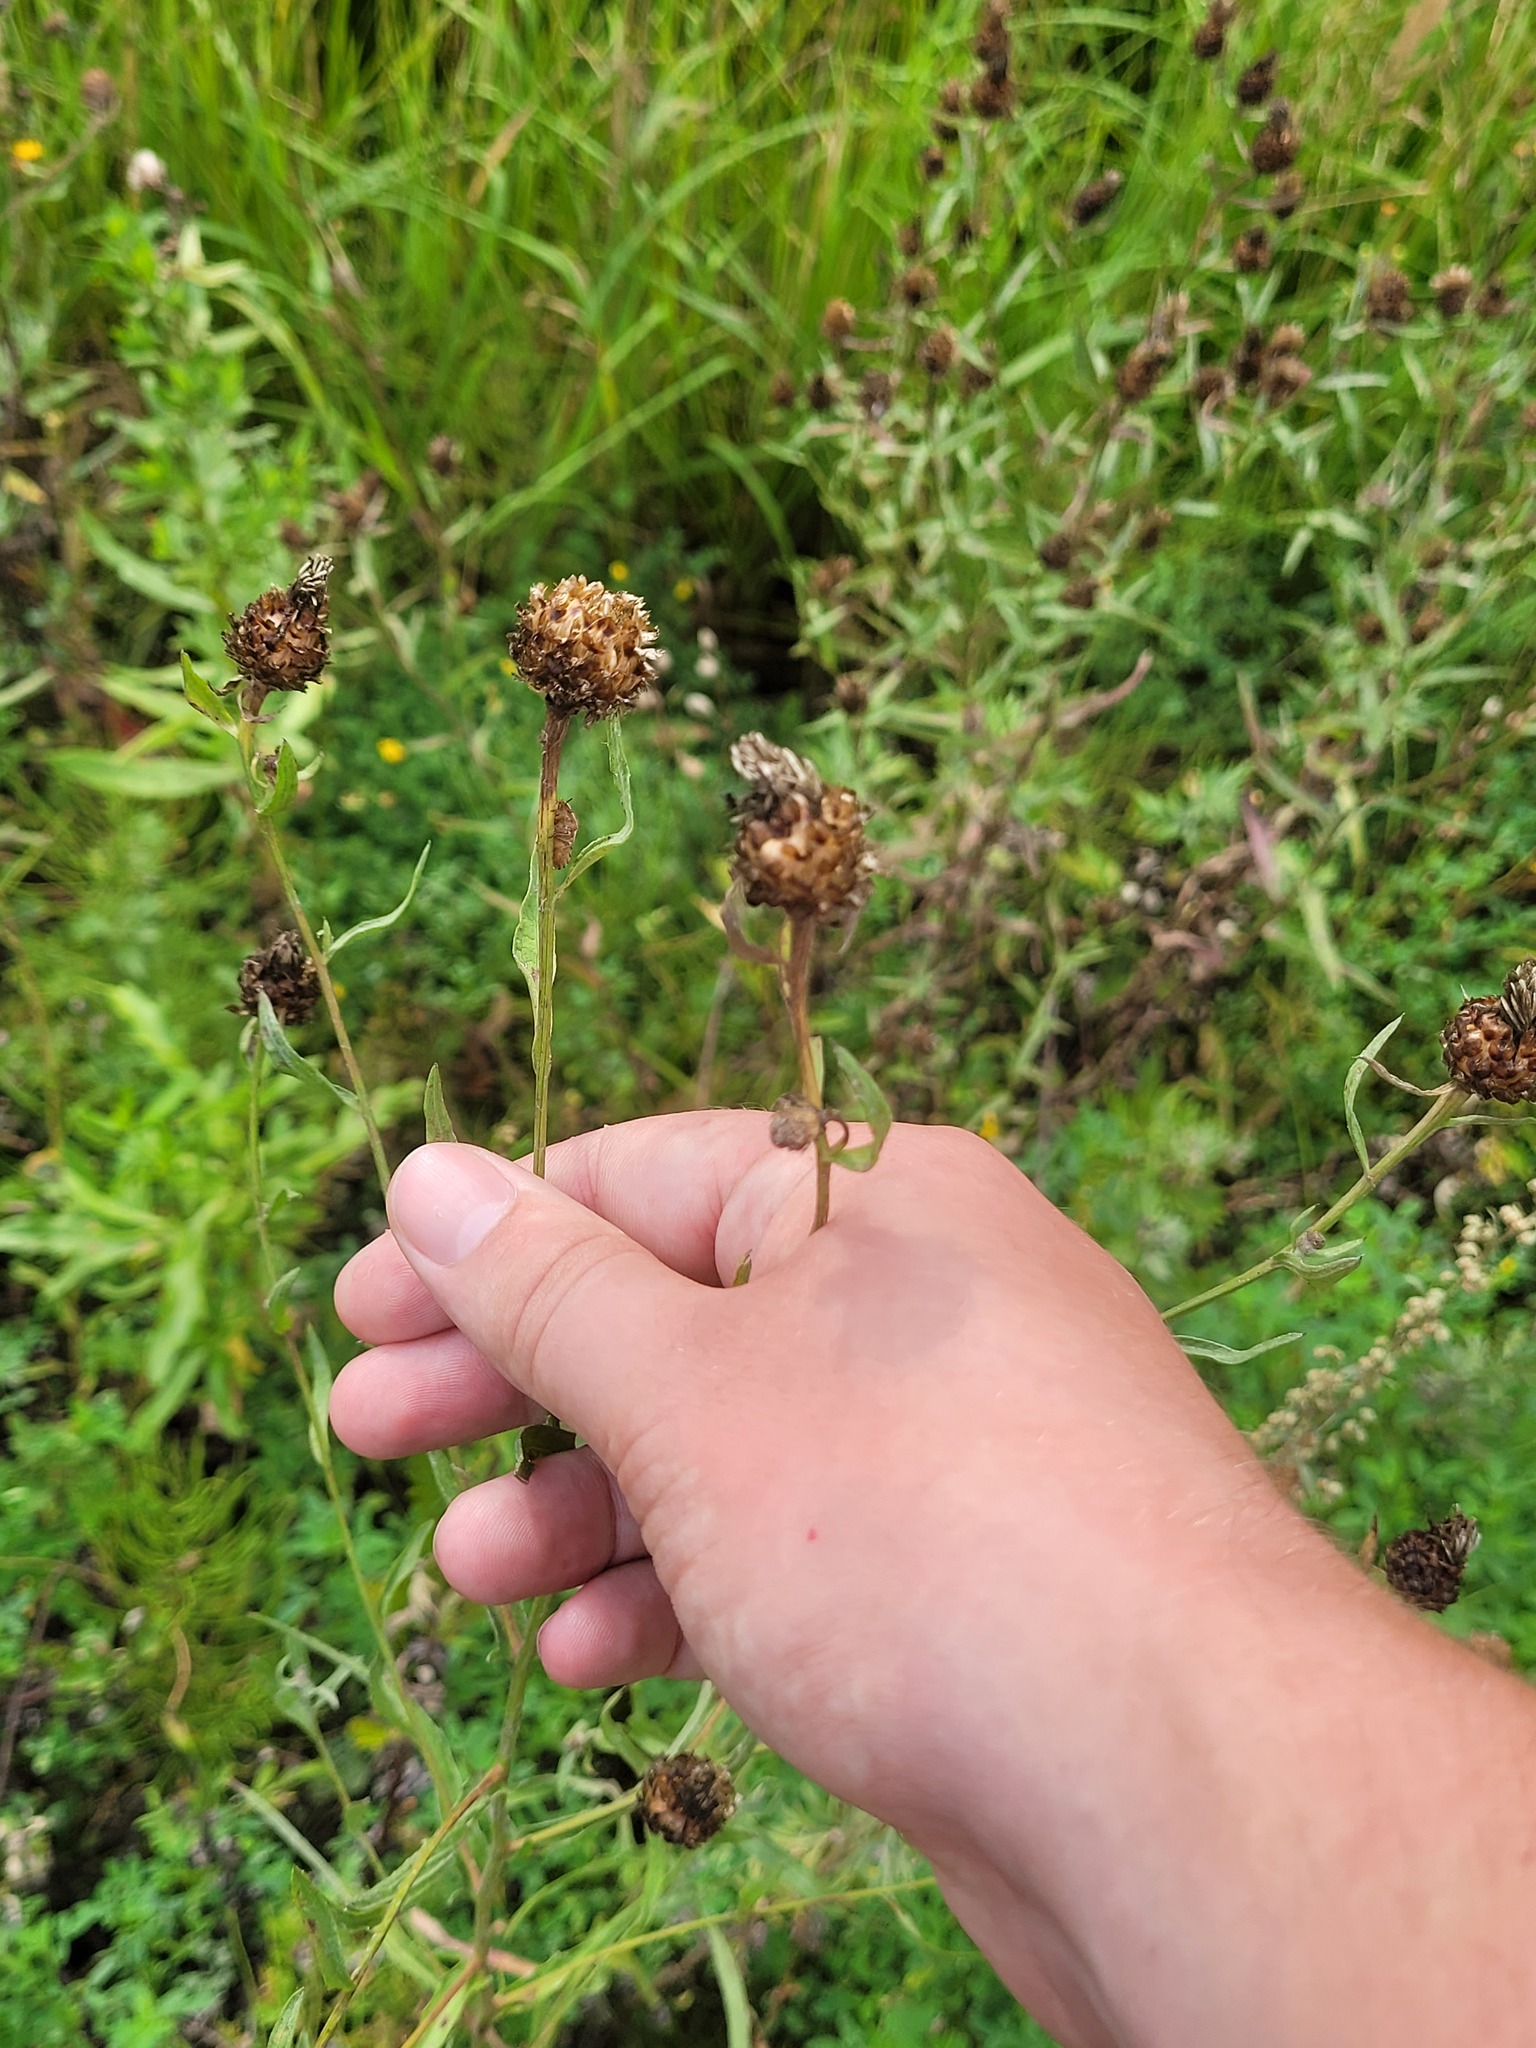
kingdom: Plantae
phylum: Tracheophyta
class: Magnoliopsida
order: Asterales
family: Asteraceae
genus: Centaurea
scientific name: Centaurea jacea
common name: Brown knapweed
